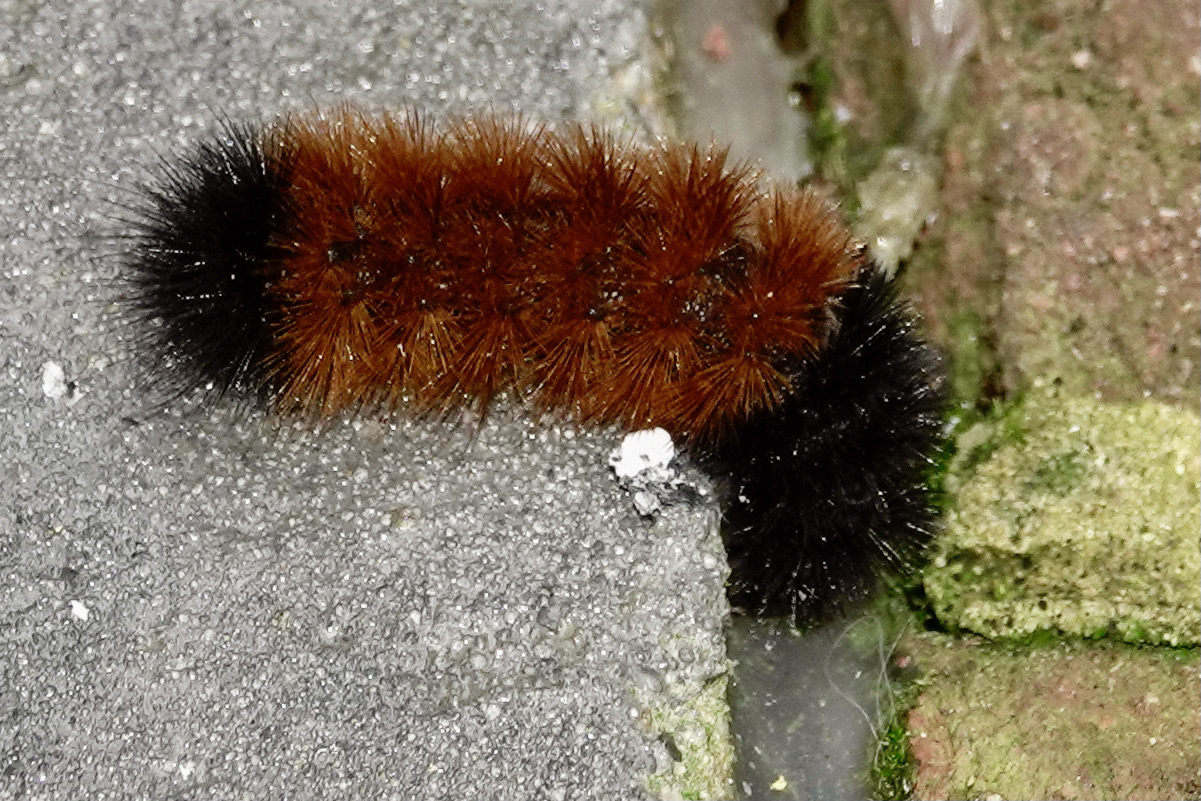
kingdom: Animalia
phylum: Arthropoda
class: Insecta
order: Lepidoptera
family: Erebidae
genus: Pyrrharctia
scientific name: Pyrrharctia isabella
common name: Isabella tiger moth
